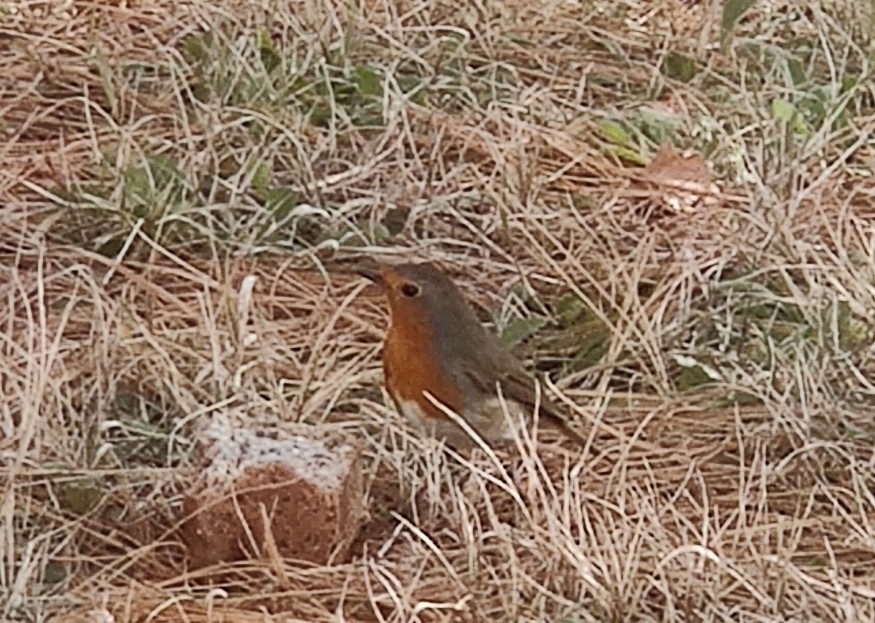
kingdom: Animalia
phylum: Chordata
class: Aves
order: Passeriformes
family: Muscicapidae
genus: Erithacus
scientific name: Erithacus rubecula
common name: European robin
